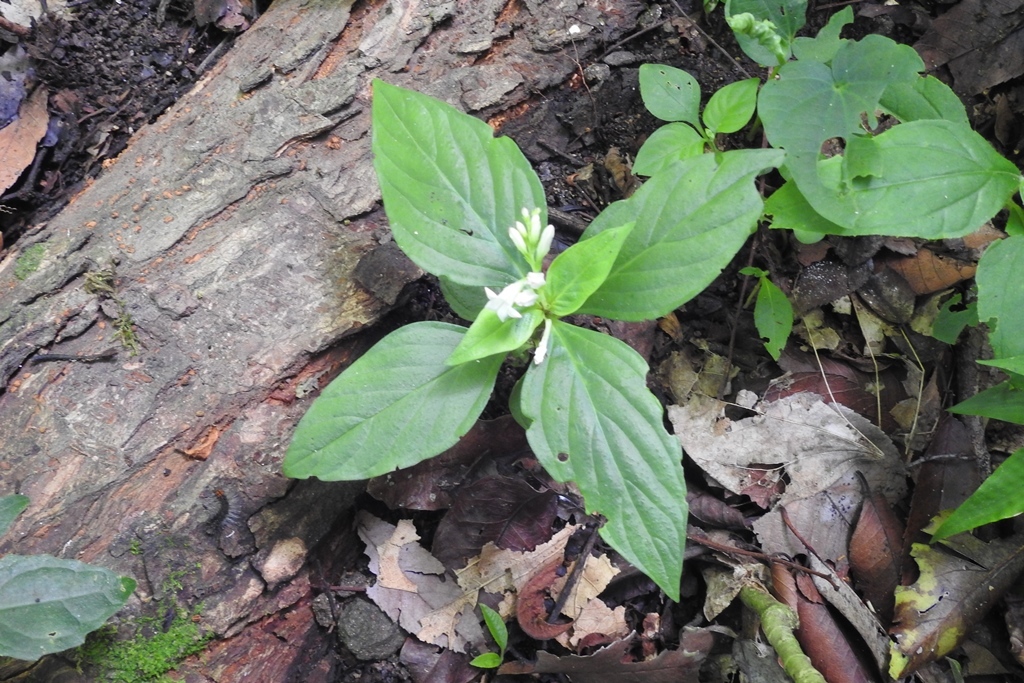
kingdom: Plantae
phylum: Tracheophyta
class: Magnoliopsida
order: Gentianales
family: Loganiaceae
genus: Spigelia
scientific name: Spigelia humboldtiana
